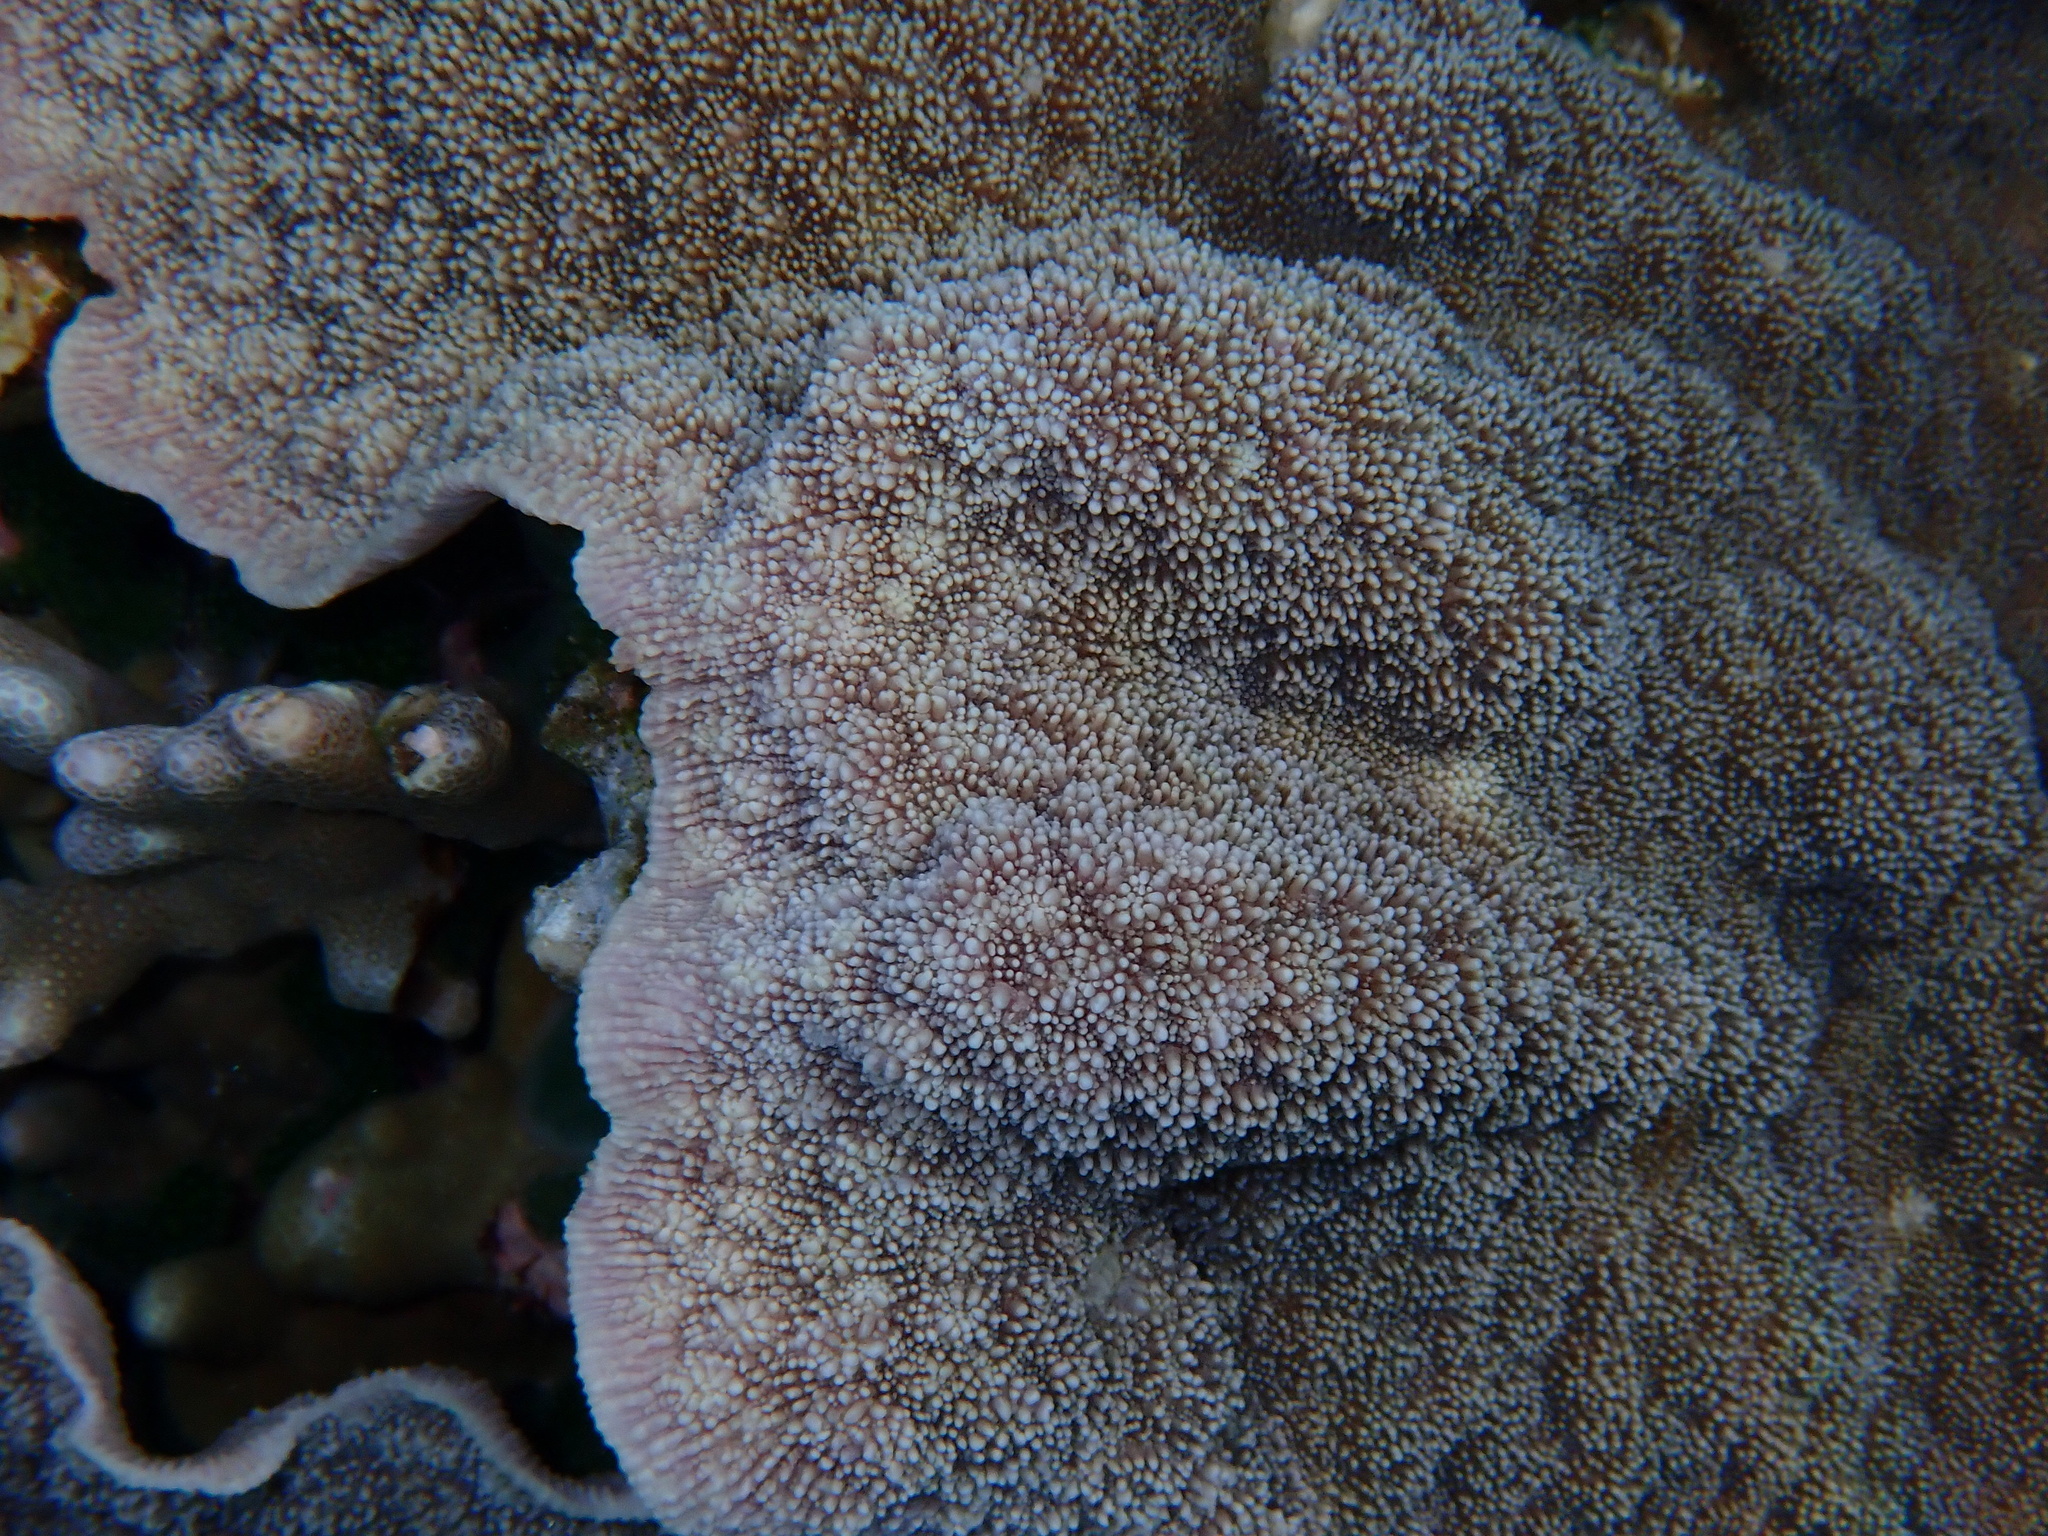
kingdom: Animalia
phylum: Cnidaria
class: Anthozoa
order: Scleractinia
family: Merulinidae
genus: Echinopora
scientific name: Echinopora gemmacea
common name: Hedgehog coral
